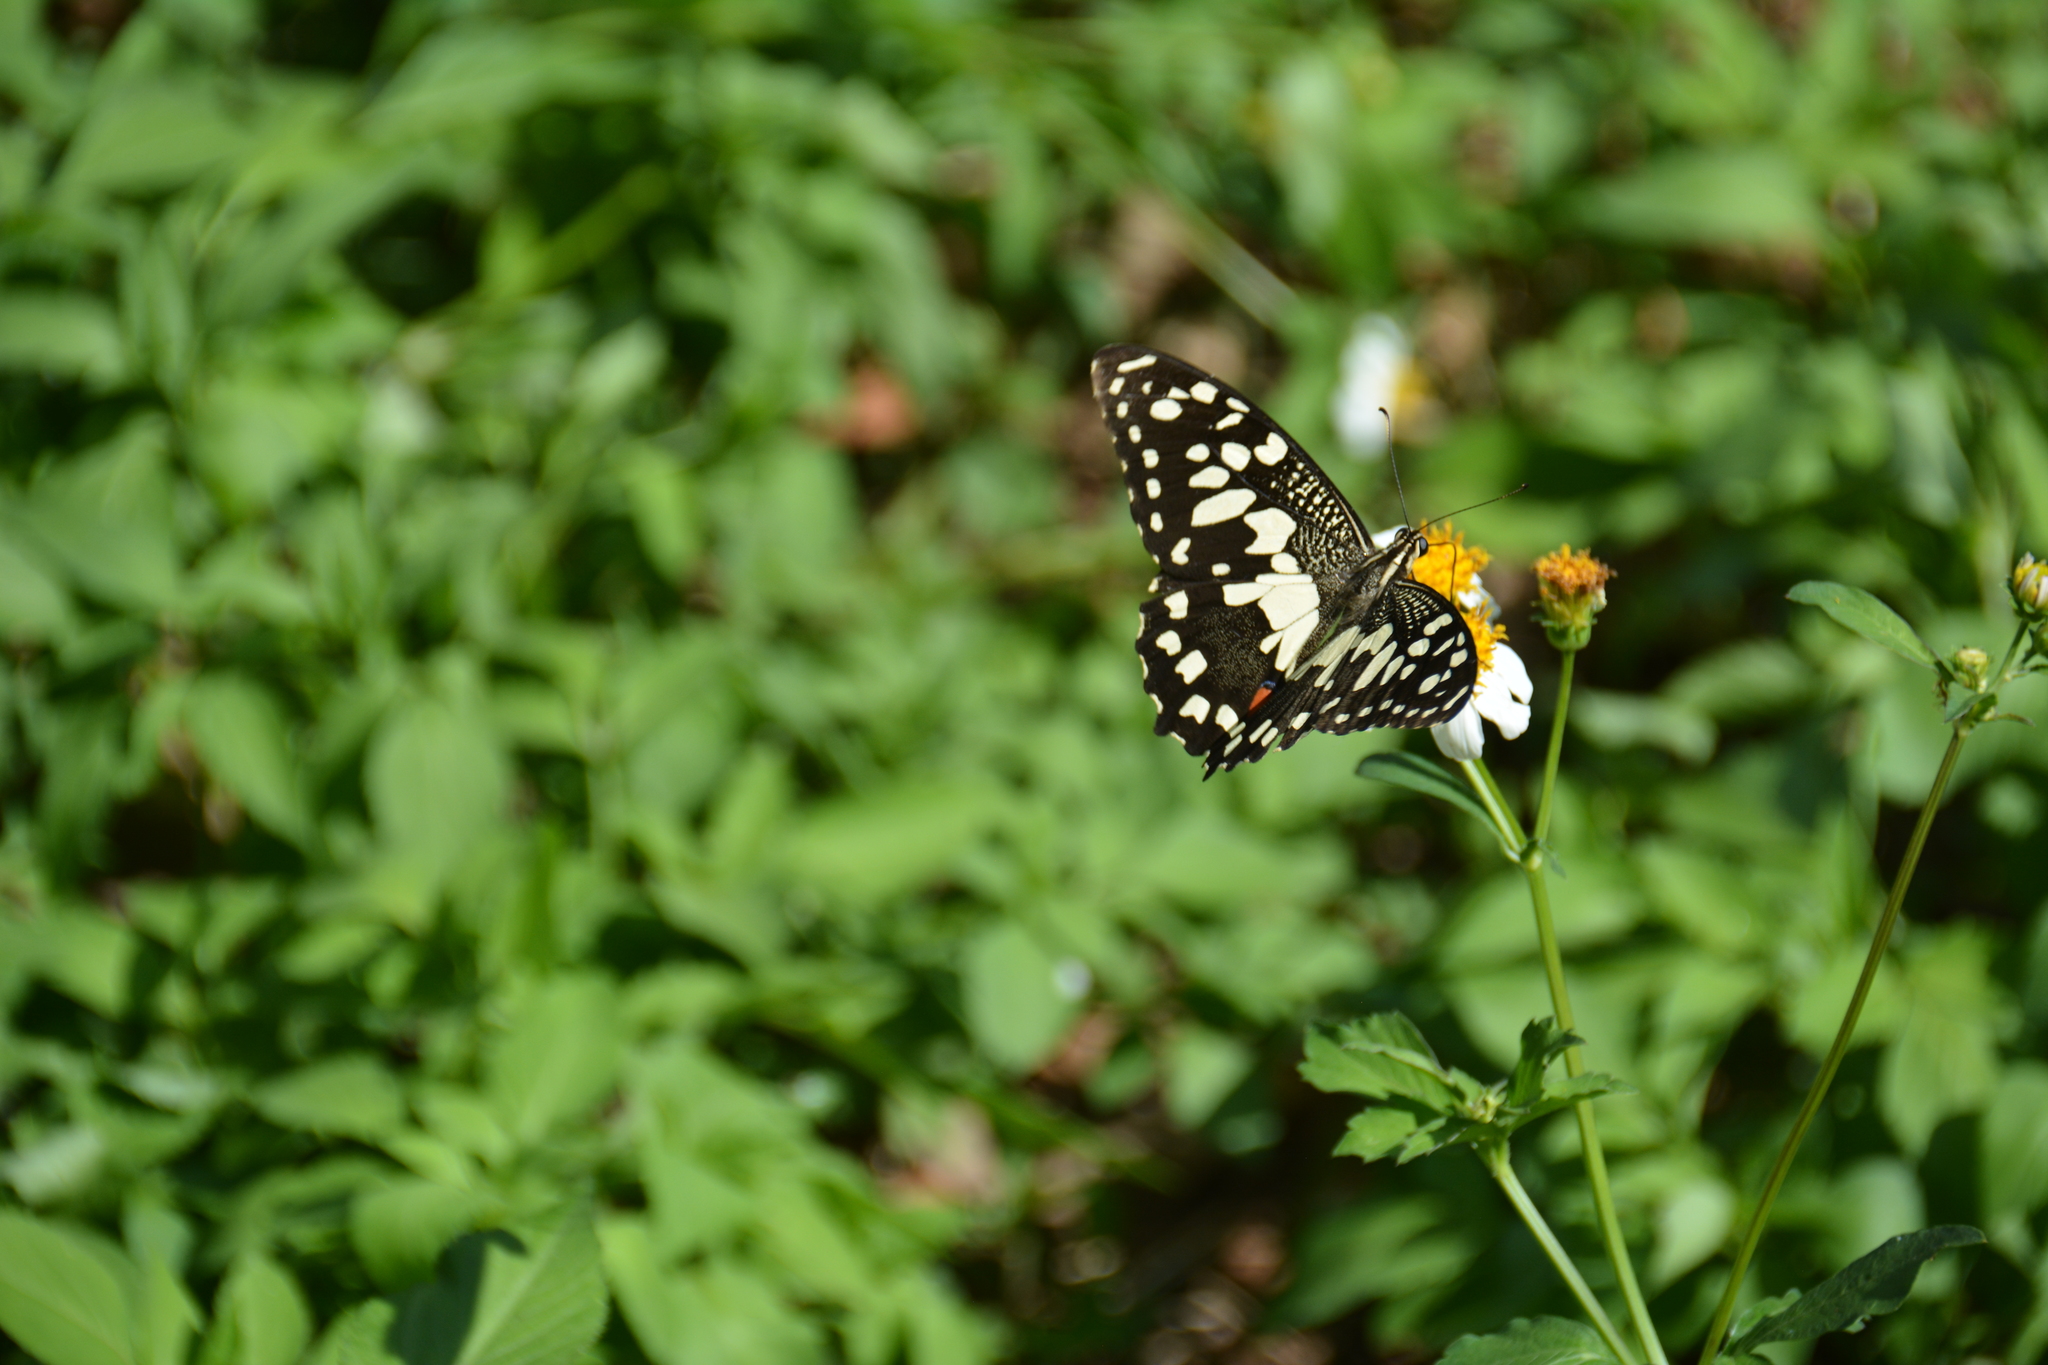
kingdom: Animalia
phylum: Arthropoda
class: Insecta
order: Lepidoptera
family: Papilionidae
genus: Papilio
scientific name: Papilio demoleus
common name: Lime butterfly
